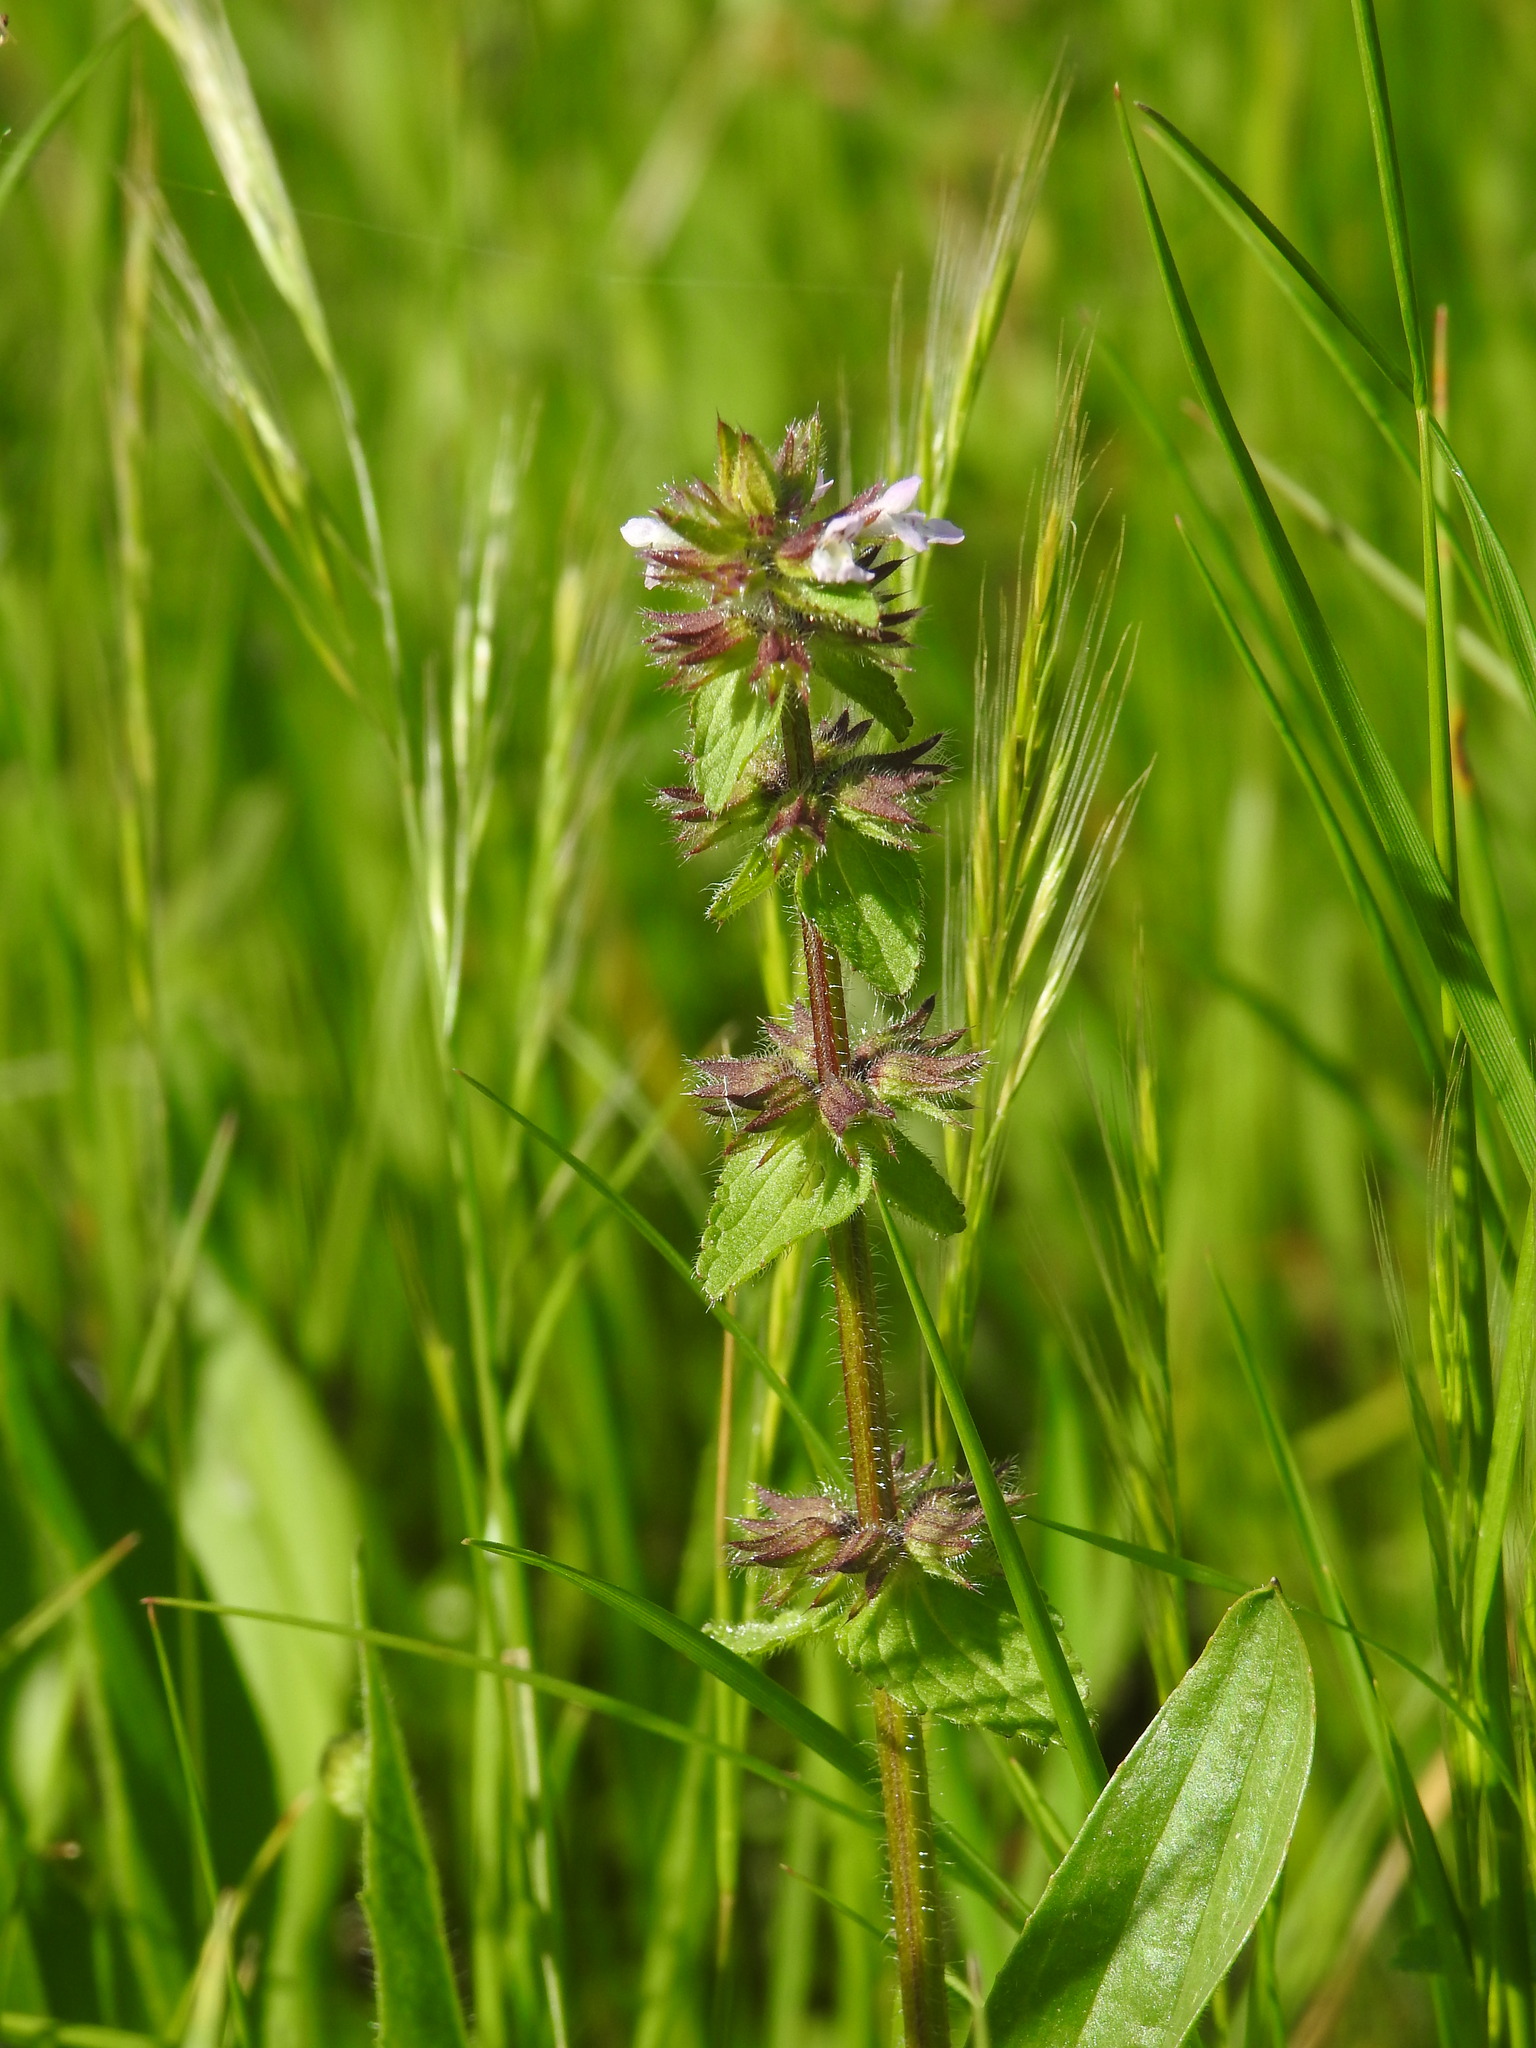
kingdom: Plantae
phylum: Tracheophyta
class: Magnoliopsida
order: Lamiales
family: Lamiaceae
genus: Stachys
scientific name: Stachys arvensis
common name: Field woundwort
